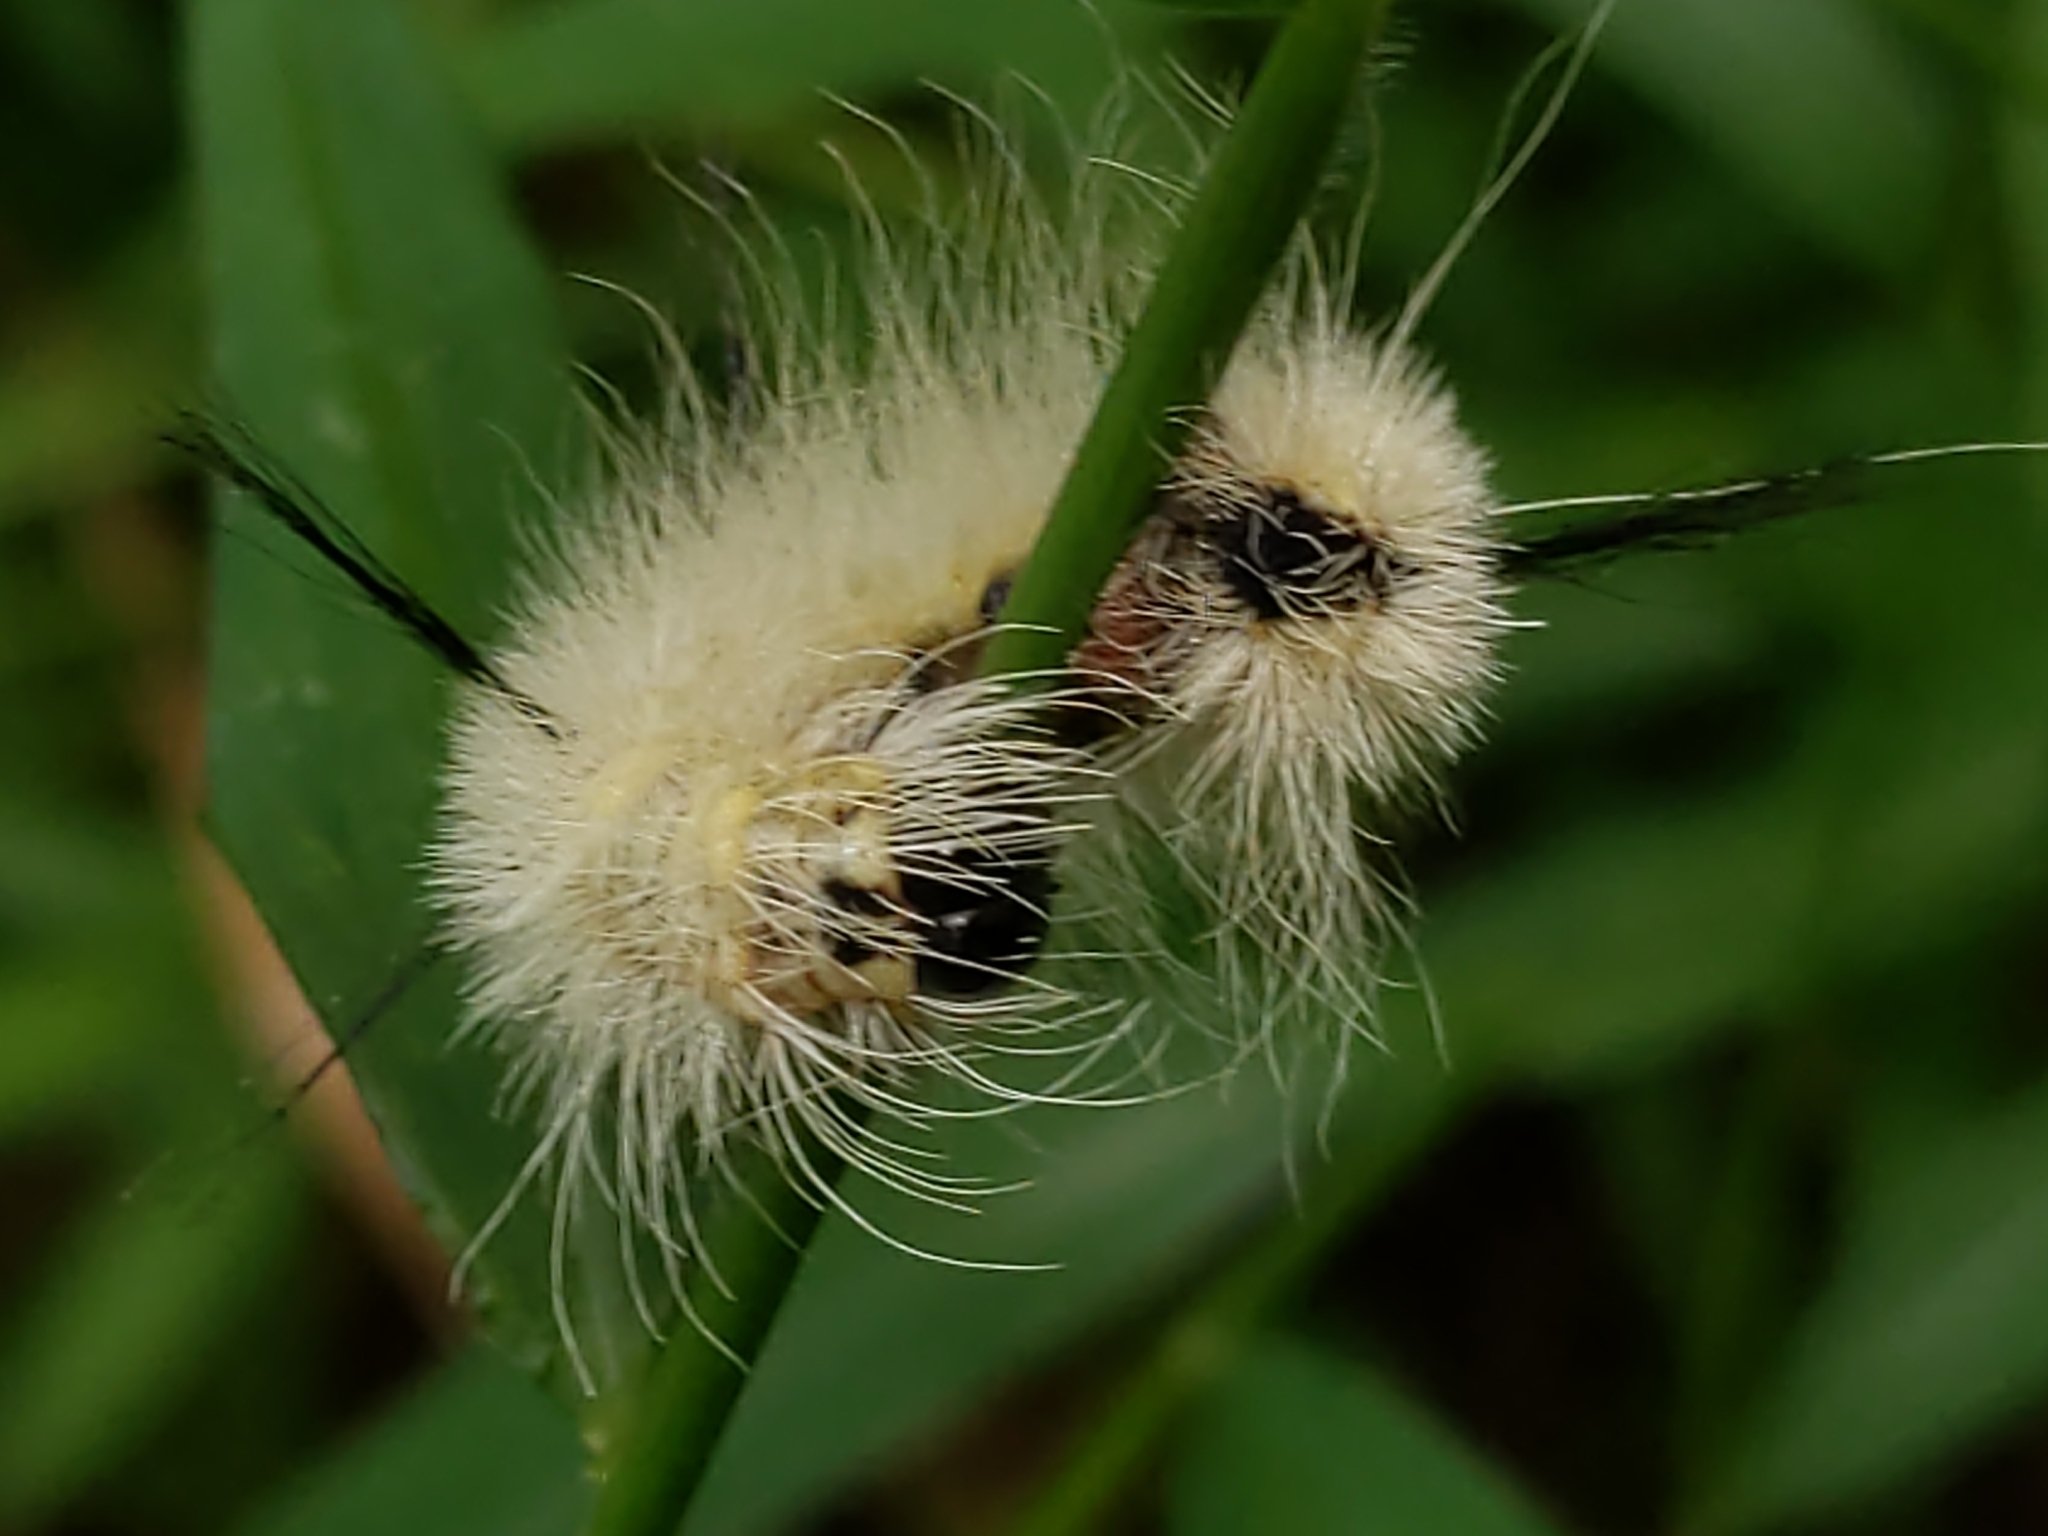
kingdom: Animalia
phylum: Arthropoda
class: Insecta
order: Lepidoptera
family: Noctuidae
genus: Acronicta
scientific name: Acronicta americana
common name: American dagger
